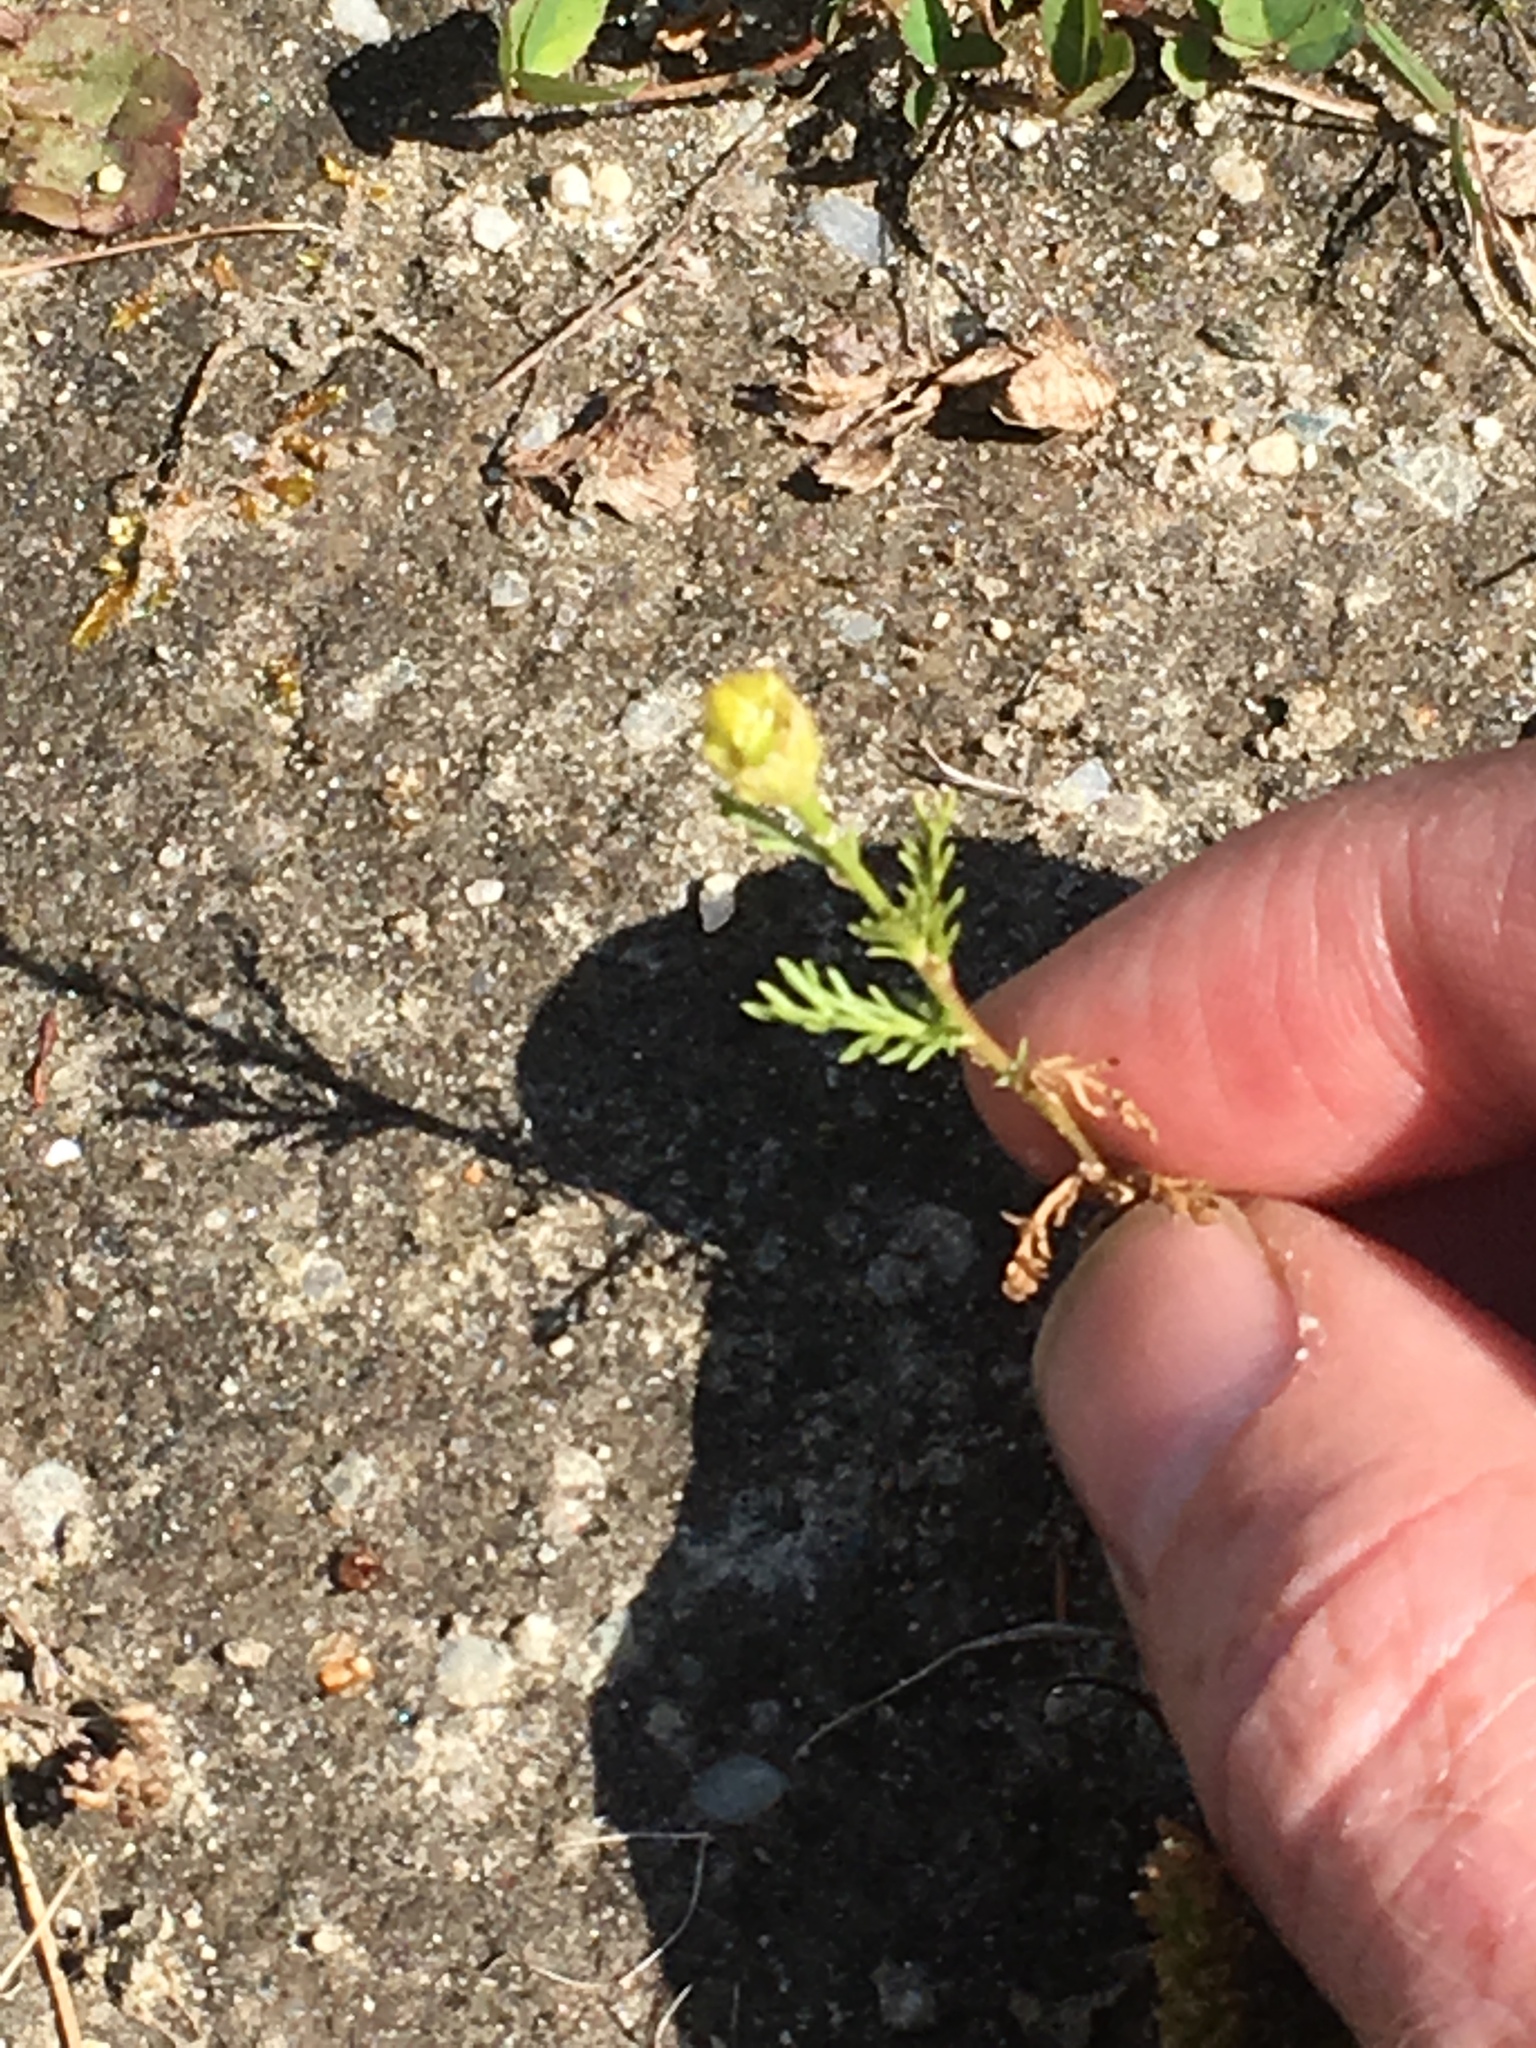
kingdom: Plantae
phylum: Tracheophyta
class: Magnoliopsida
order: Asterales
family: Asteraceae
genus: Matricaria
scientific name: Matricaria discoidea
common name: Disc mayweed
